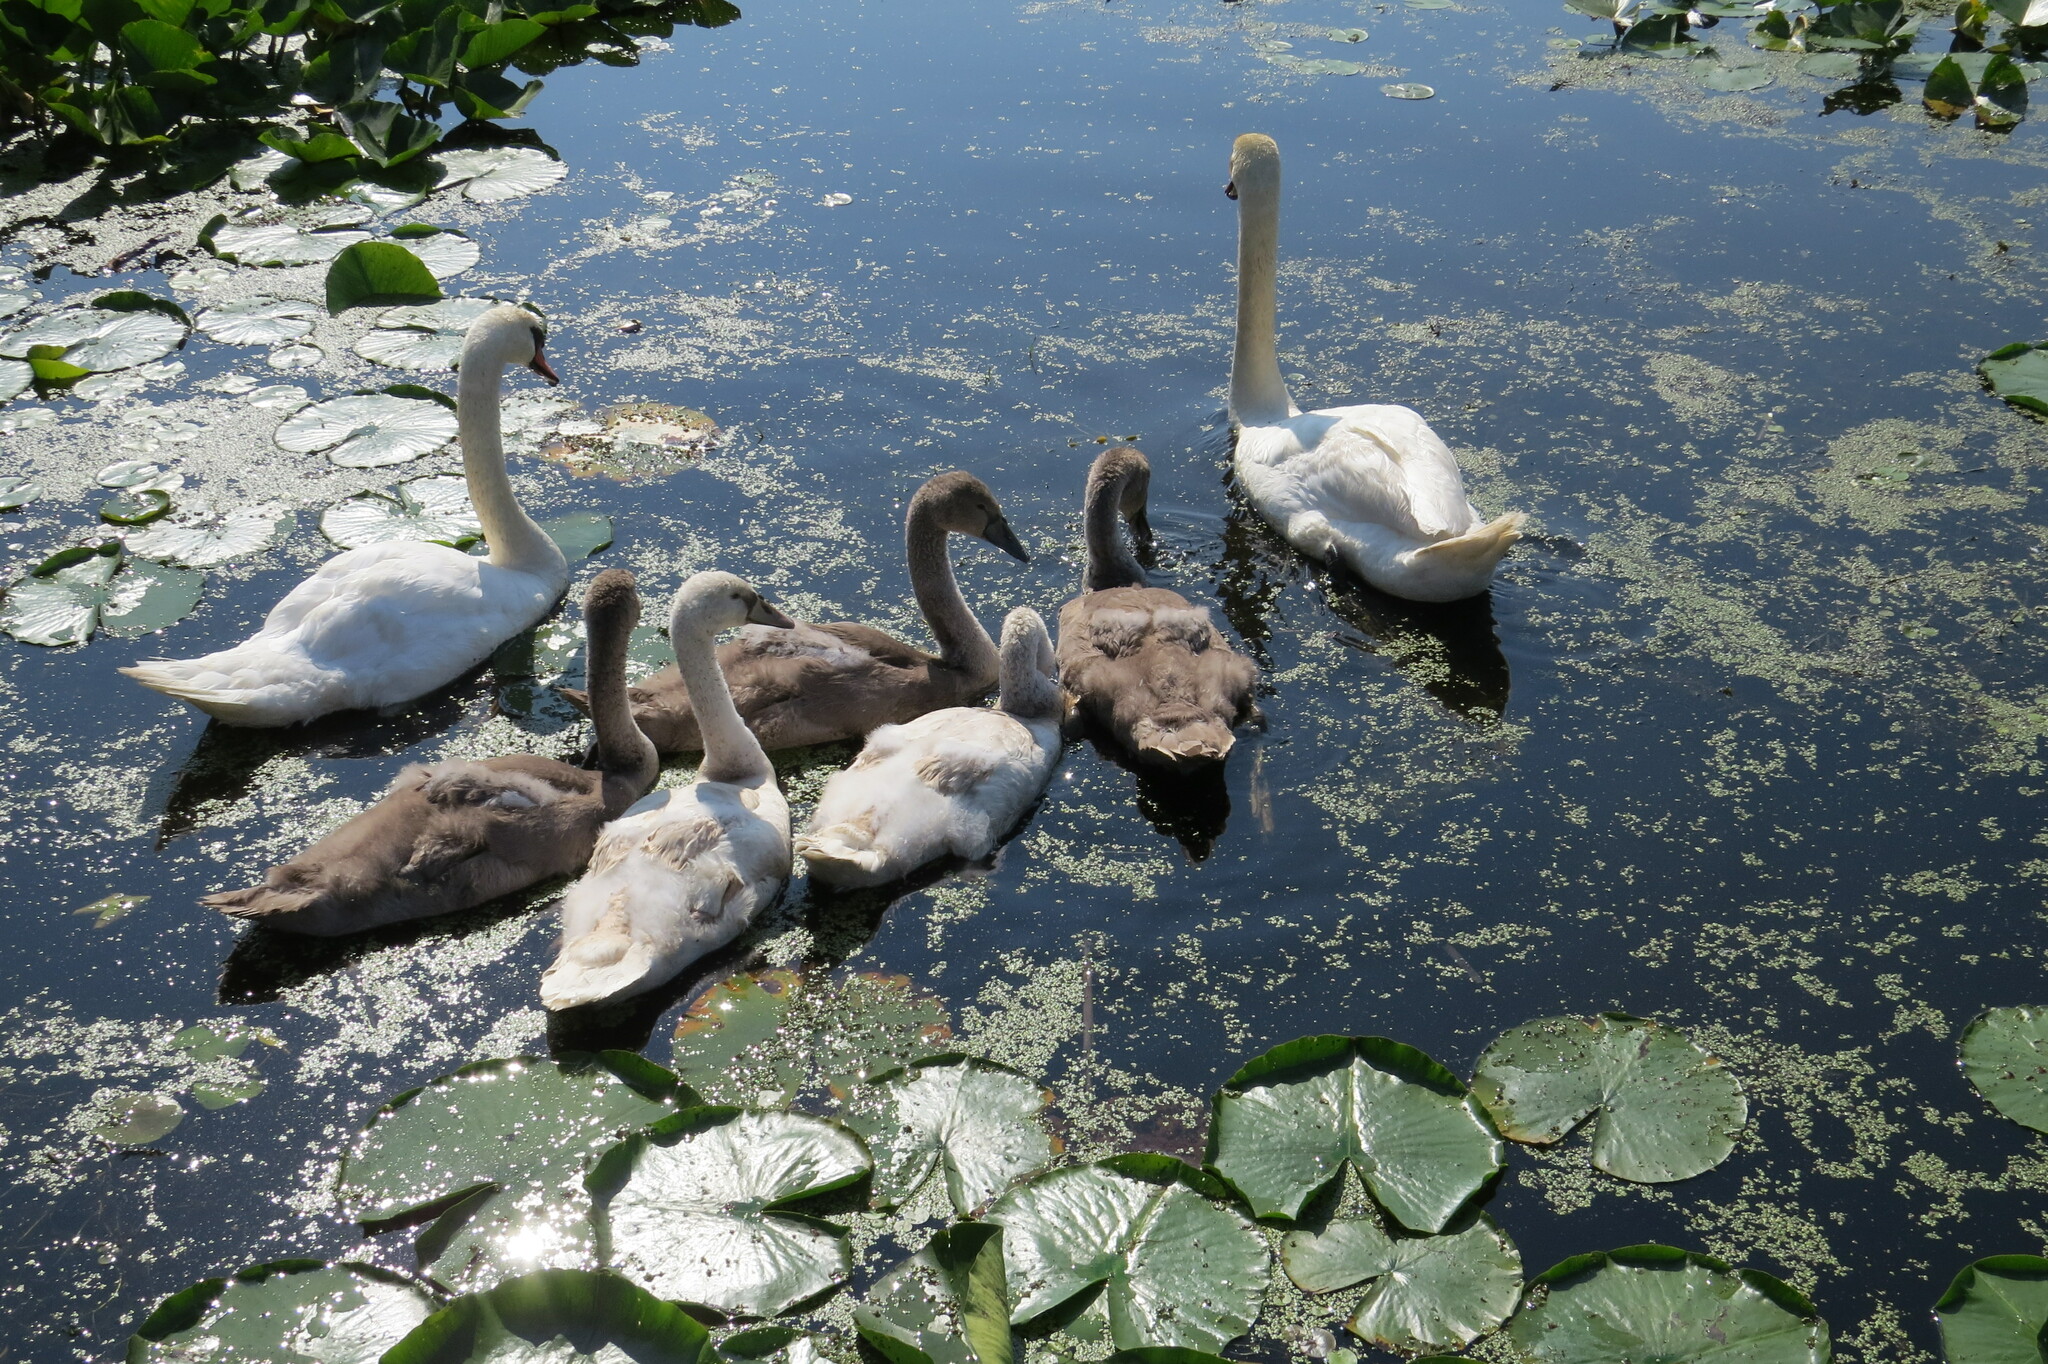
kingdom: Animalia
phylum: Chordata
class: Aves
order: Anseriformes
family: Anatidae
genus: Cygnus
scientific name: Cygnus olor
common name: Mute swan
